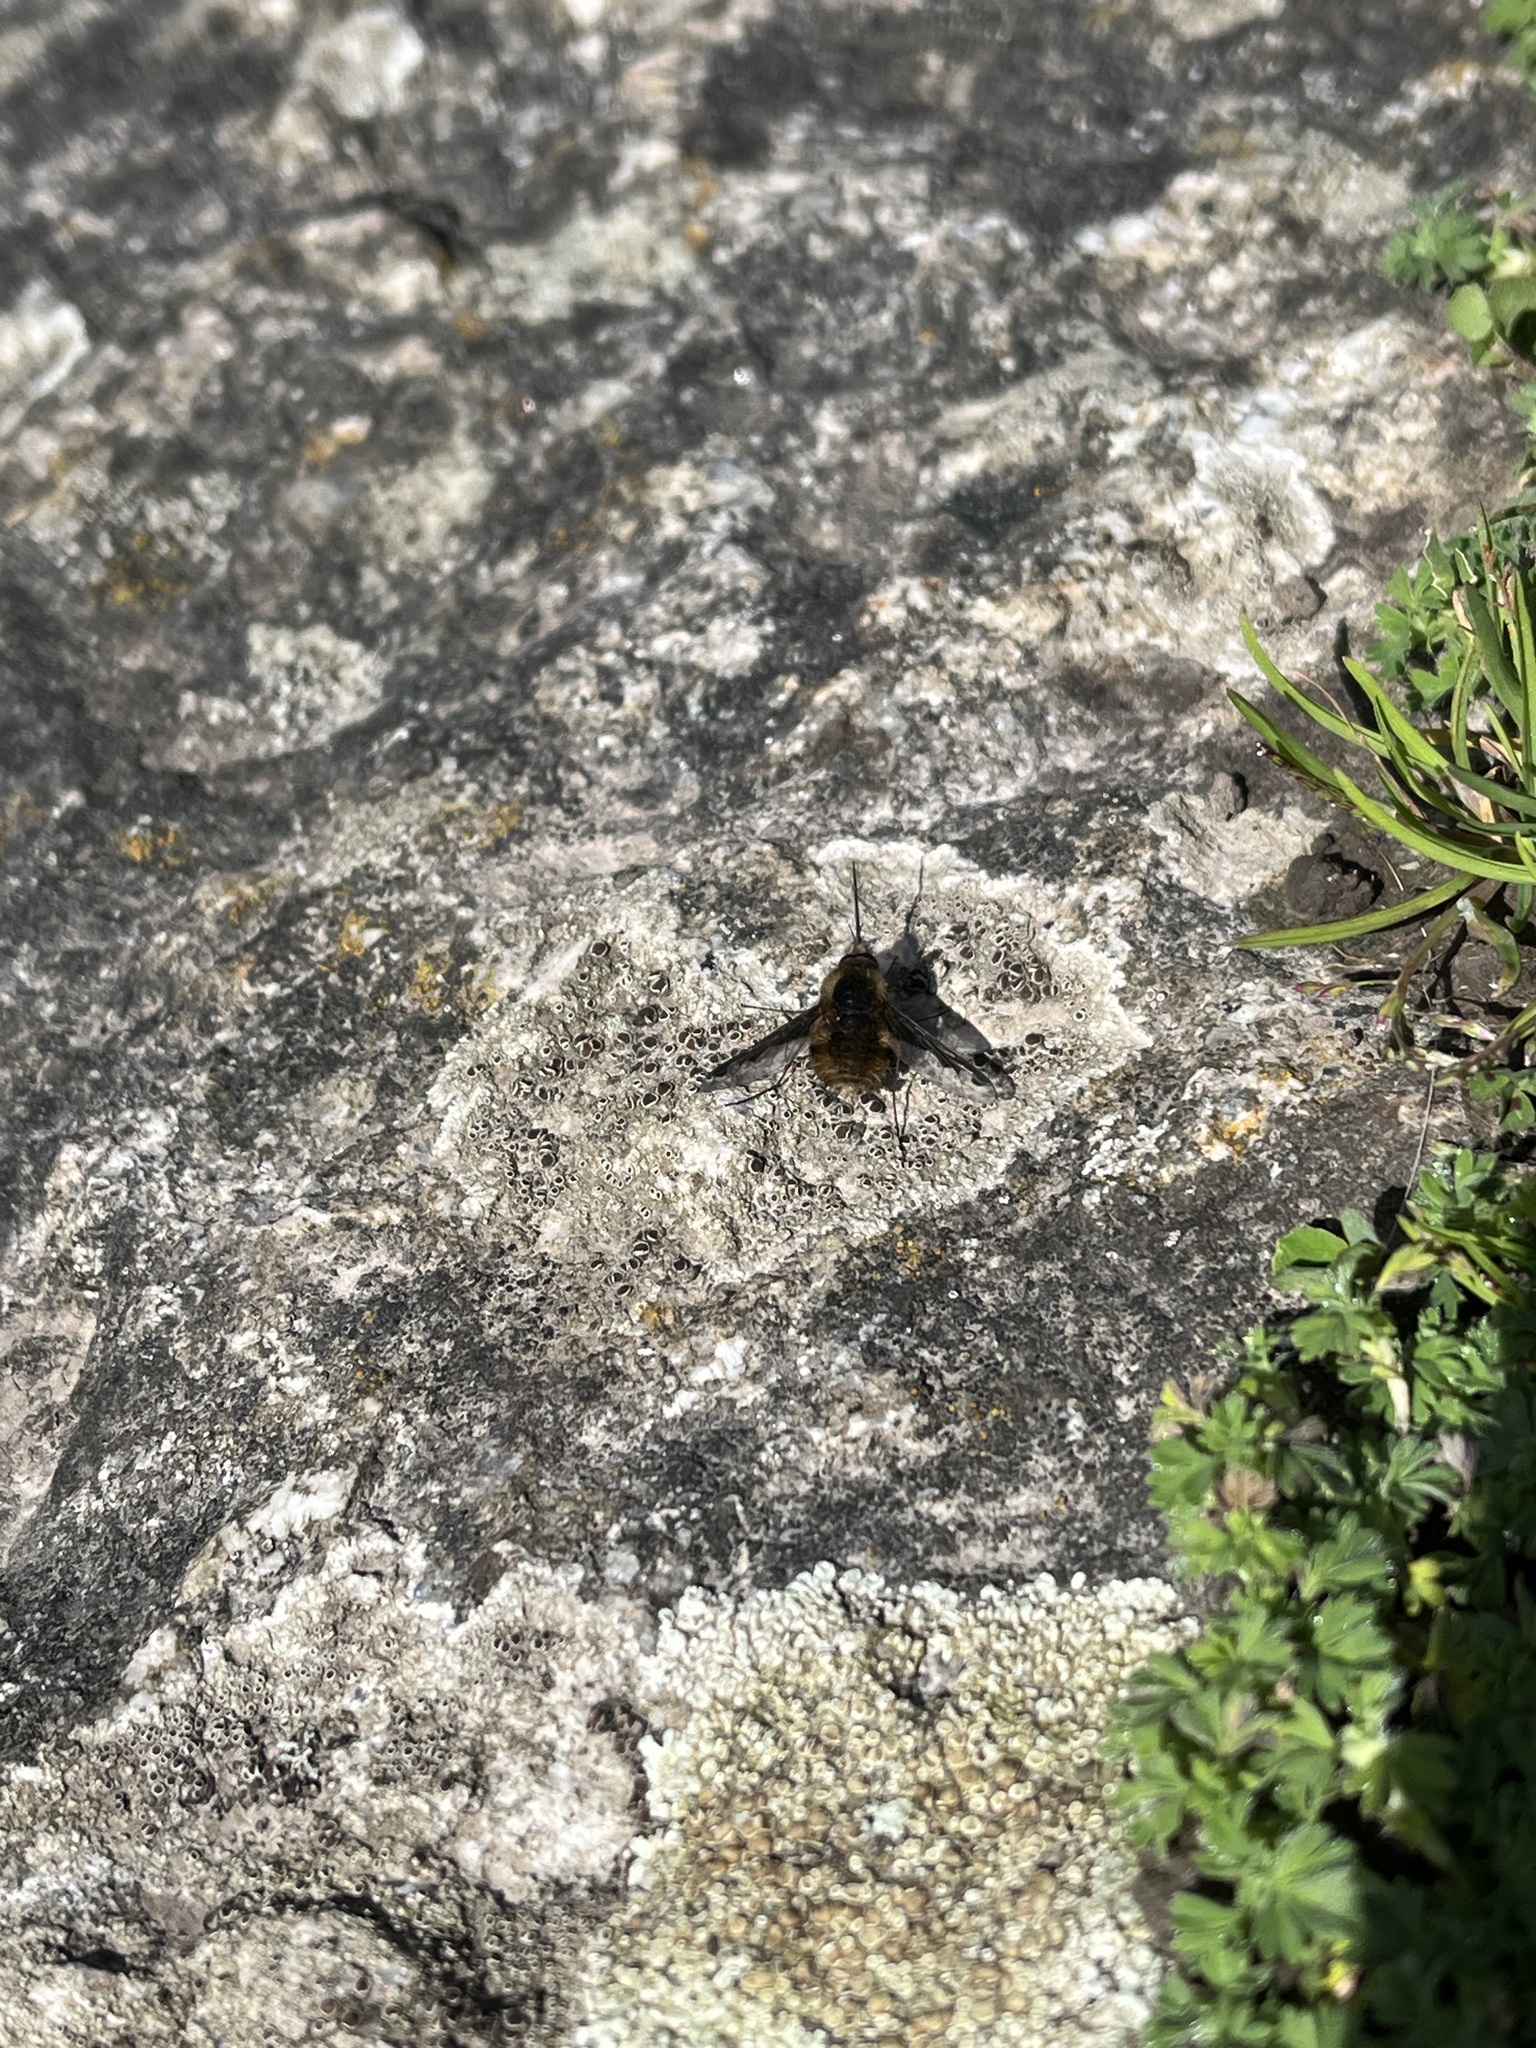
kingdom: Animalia
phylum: Arthropoda
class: Insecta
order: Diptera
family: Bombyliidae
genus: Bombylius
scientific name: Bombylius major
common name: Bee fly
